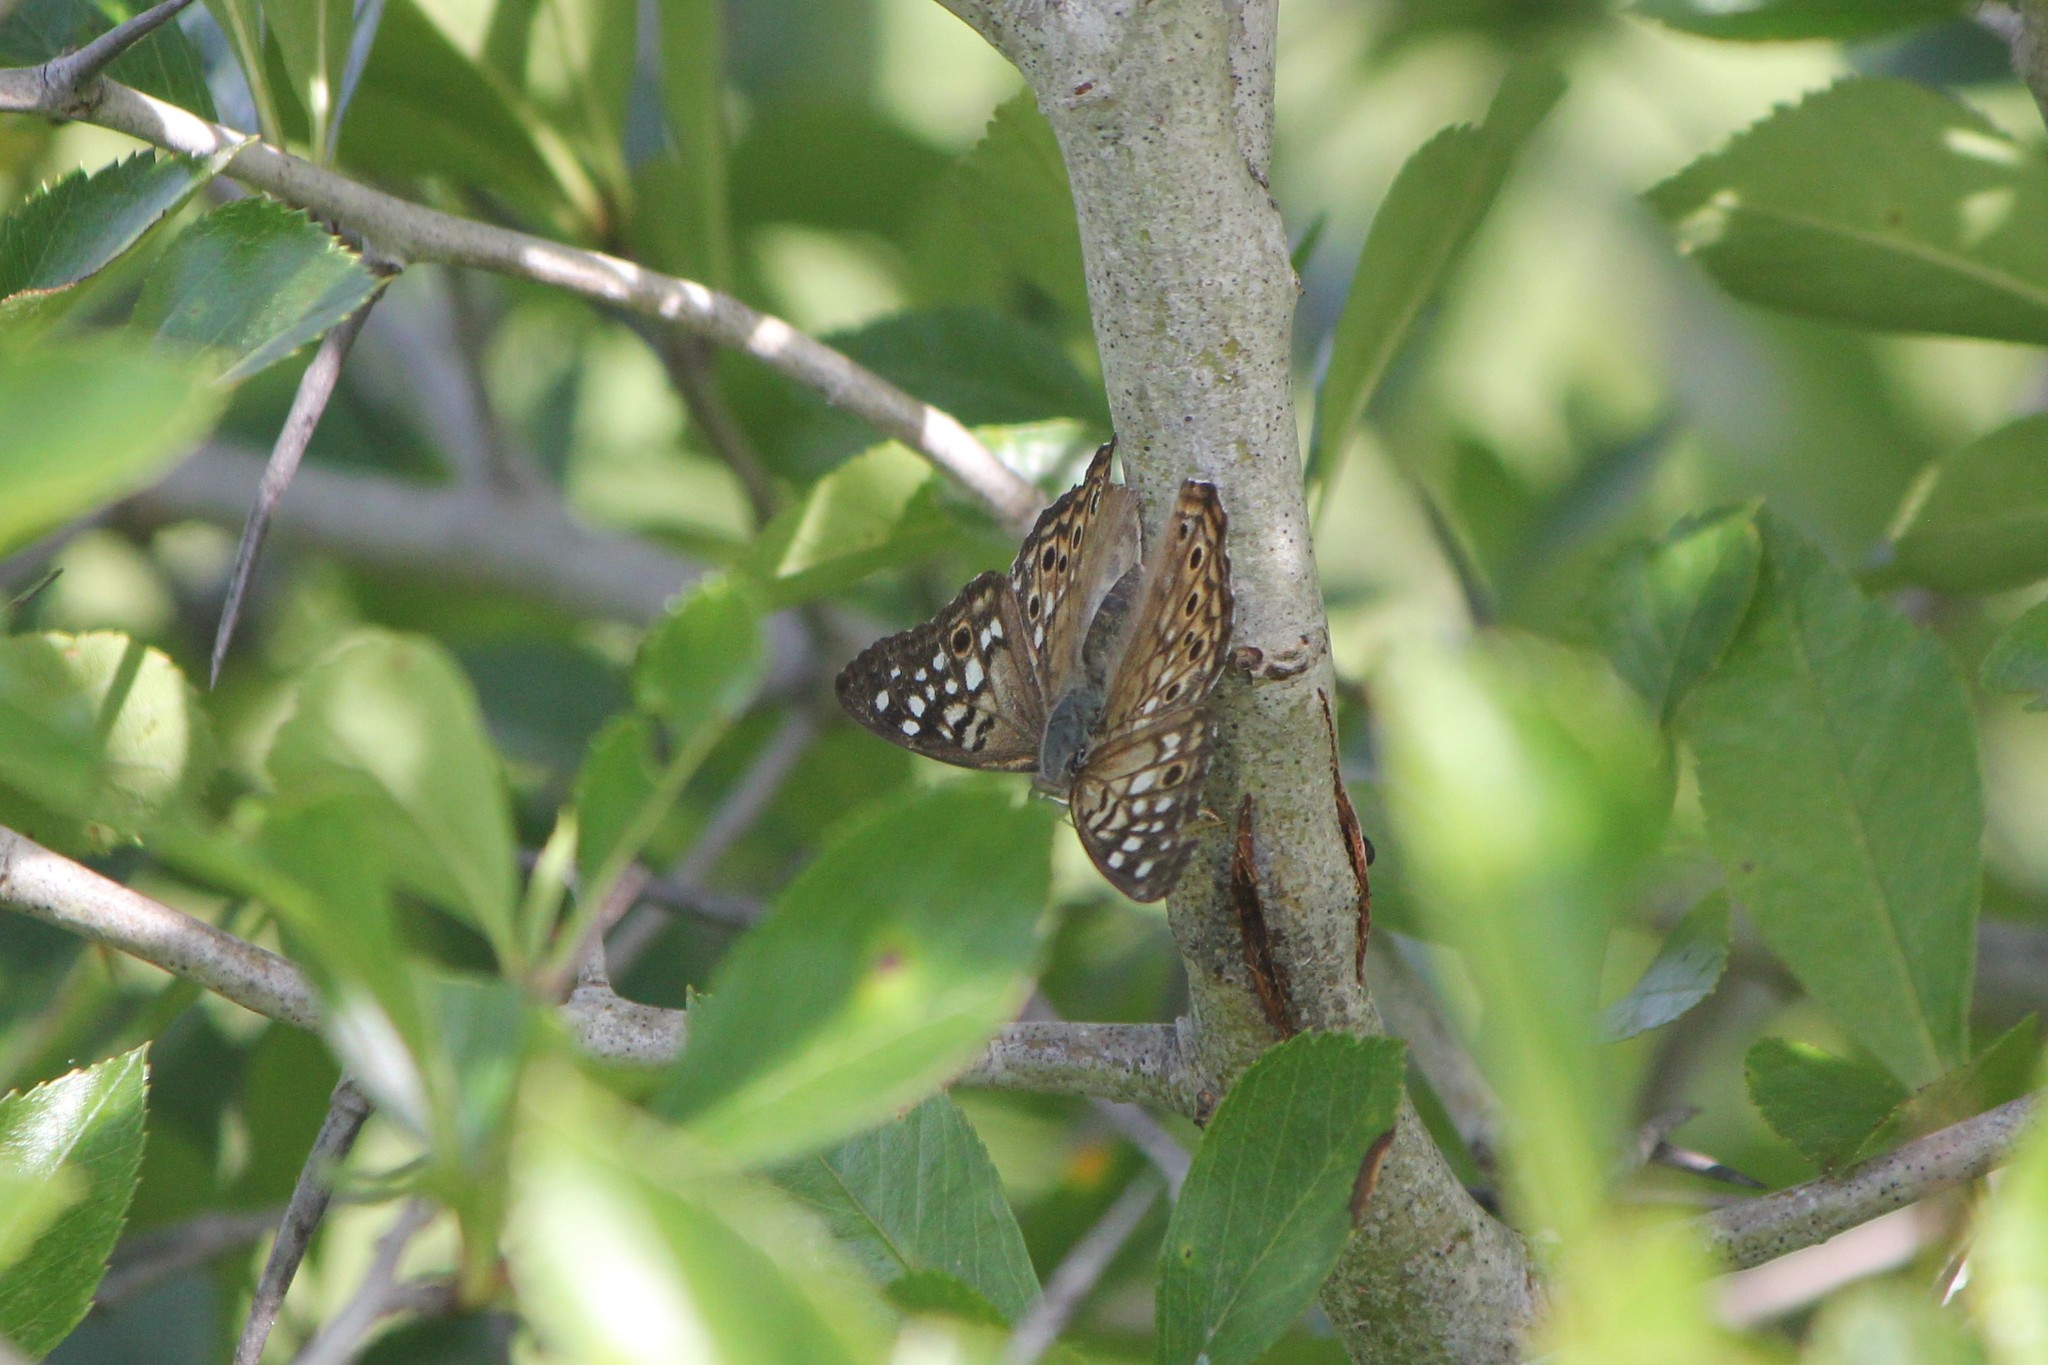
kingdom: Animalia
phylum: Arthropoda
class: Insecta
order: Lepidoptera
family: Nymphalidae
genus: Asterocampa
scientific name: Asterocampa celtis
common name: Hackberry emperor
